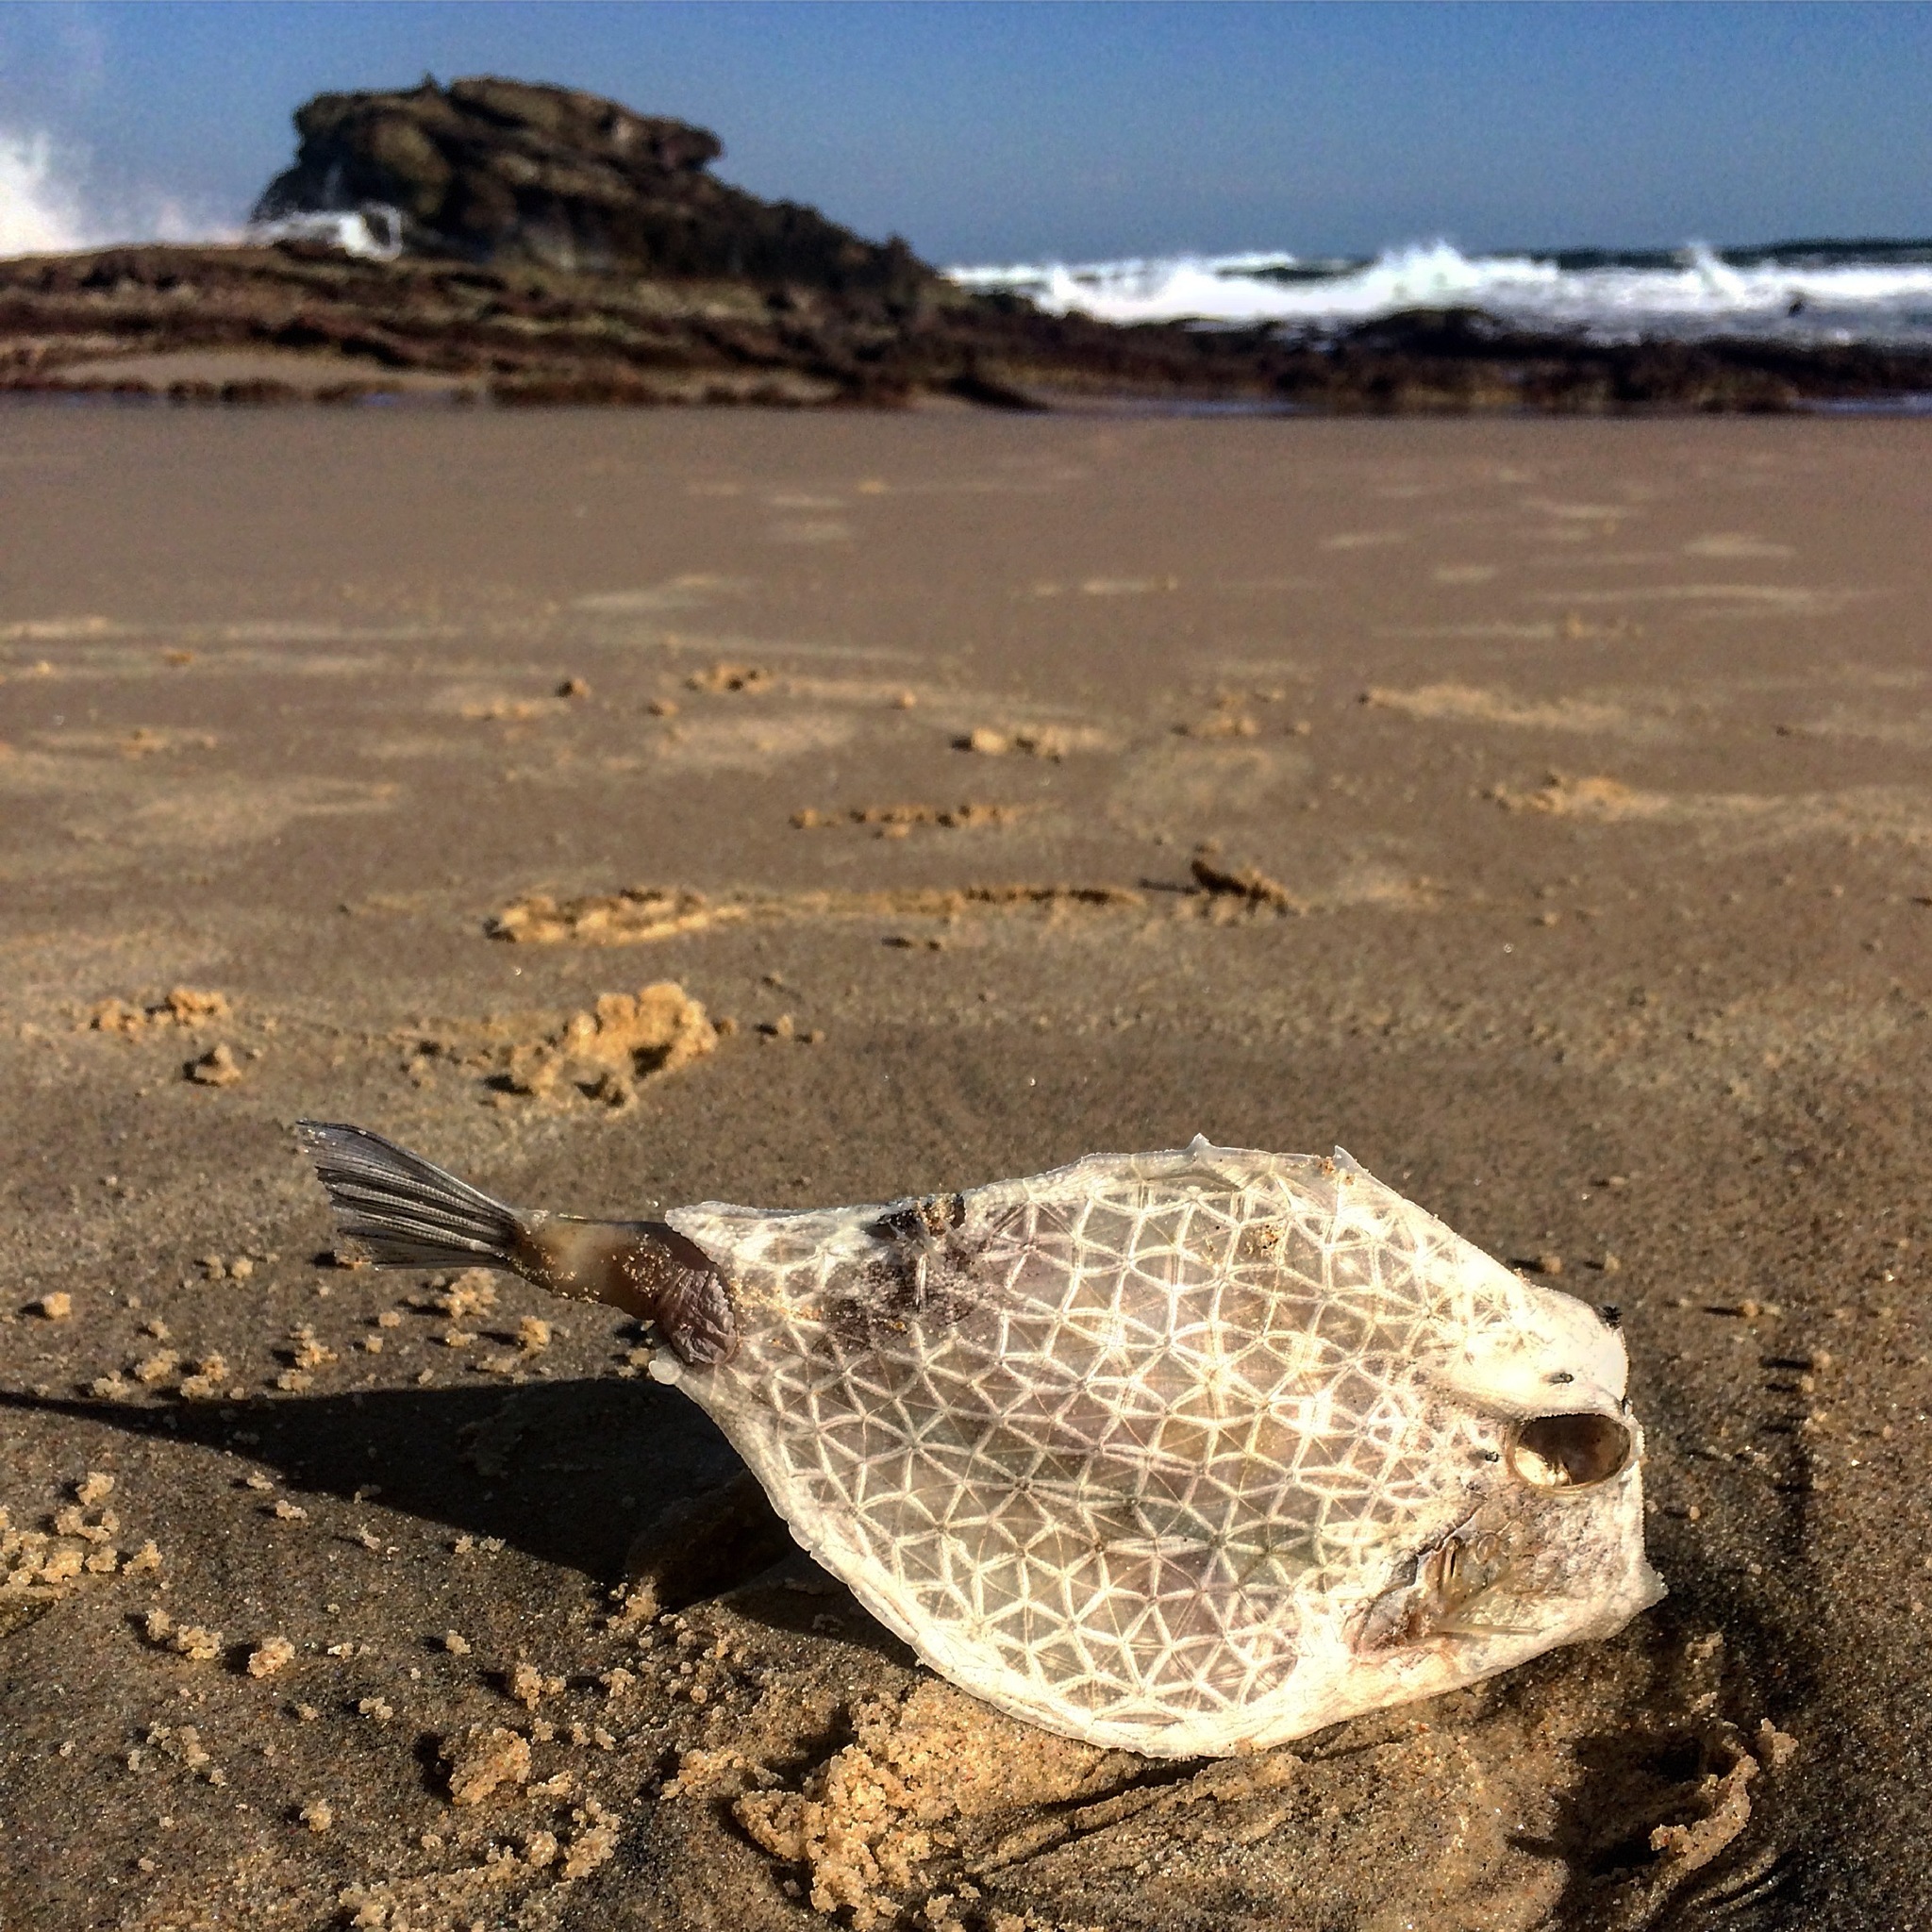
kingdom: Animalia
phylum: Chordata
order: Tetraodontiformes
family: Ostraciidae
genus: Tetrosomus
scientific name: Tetrosomus reipublicae
